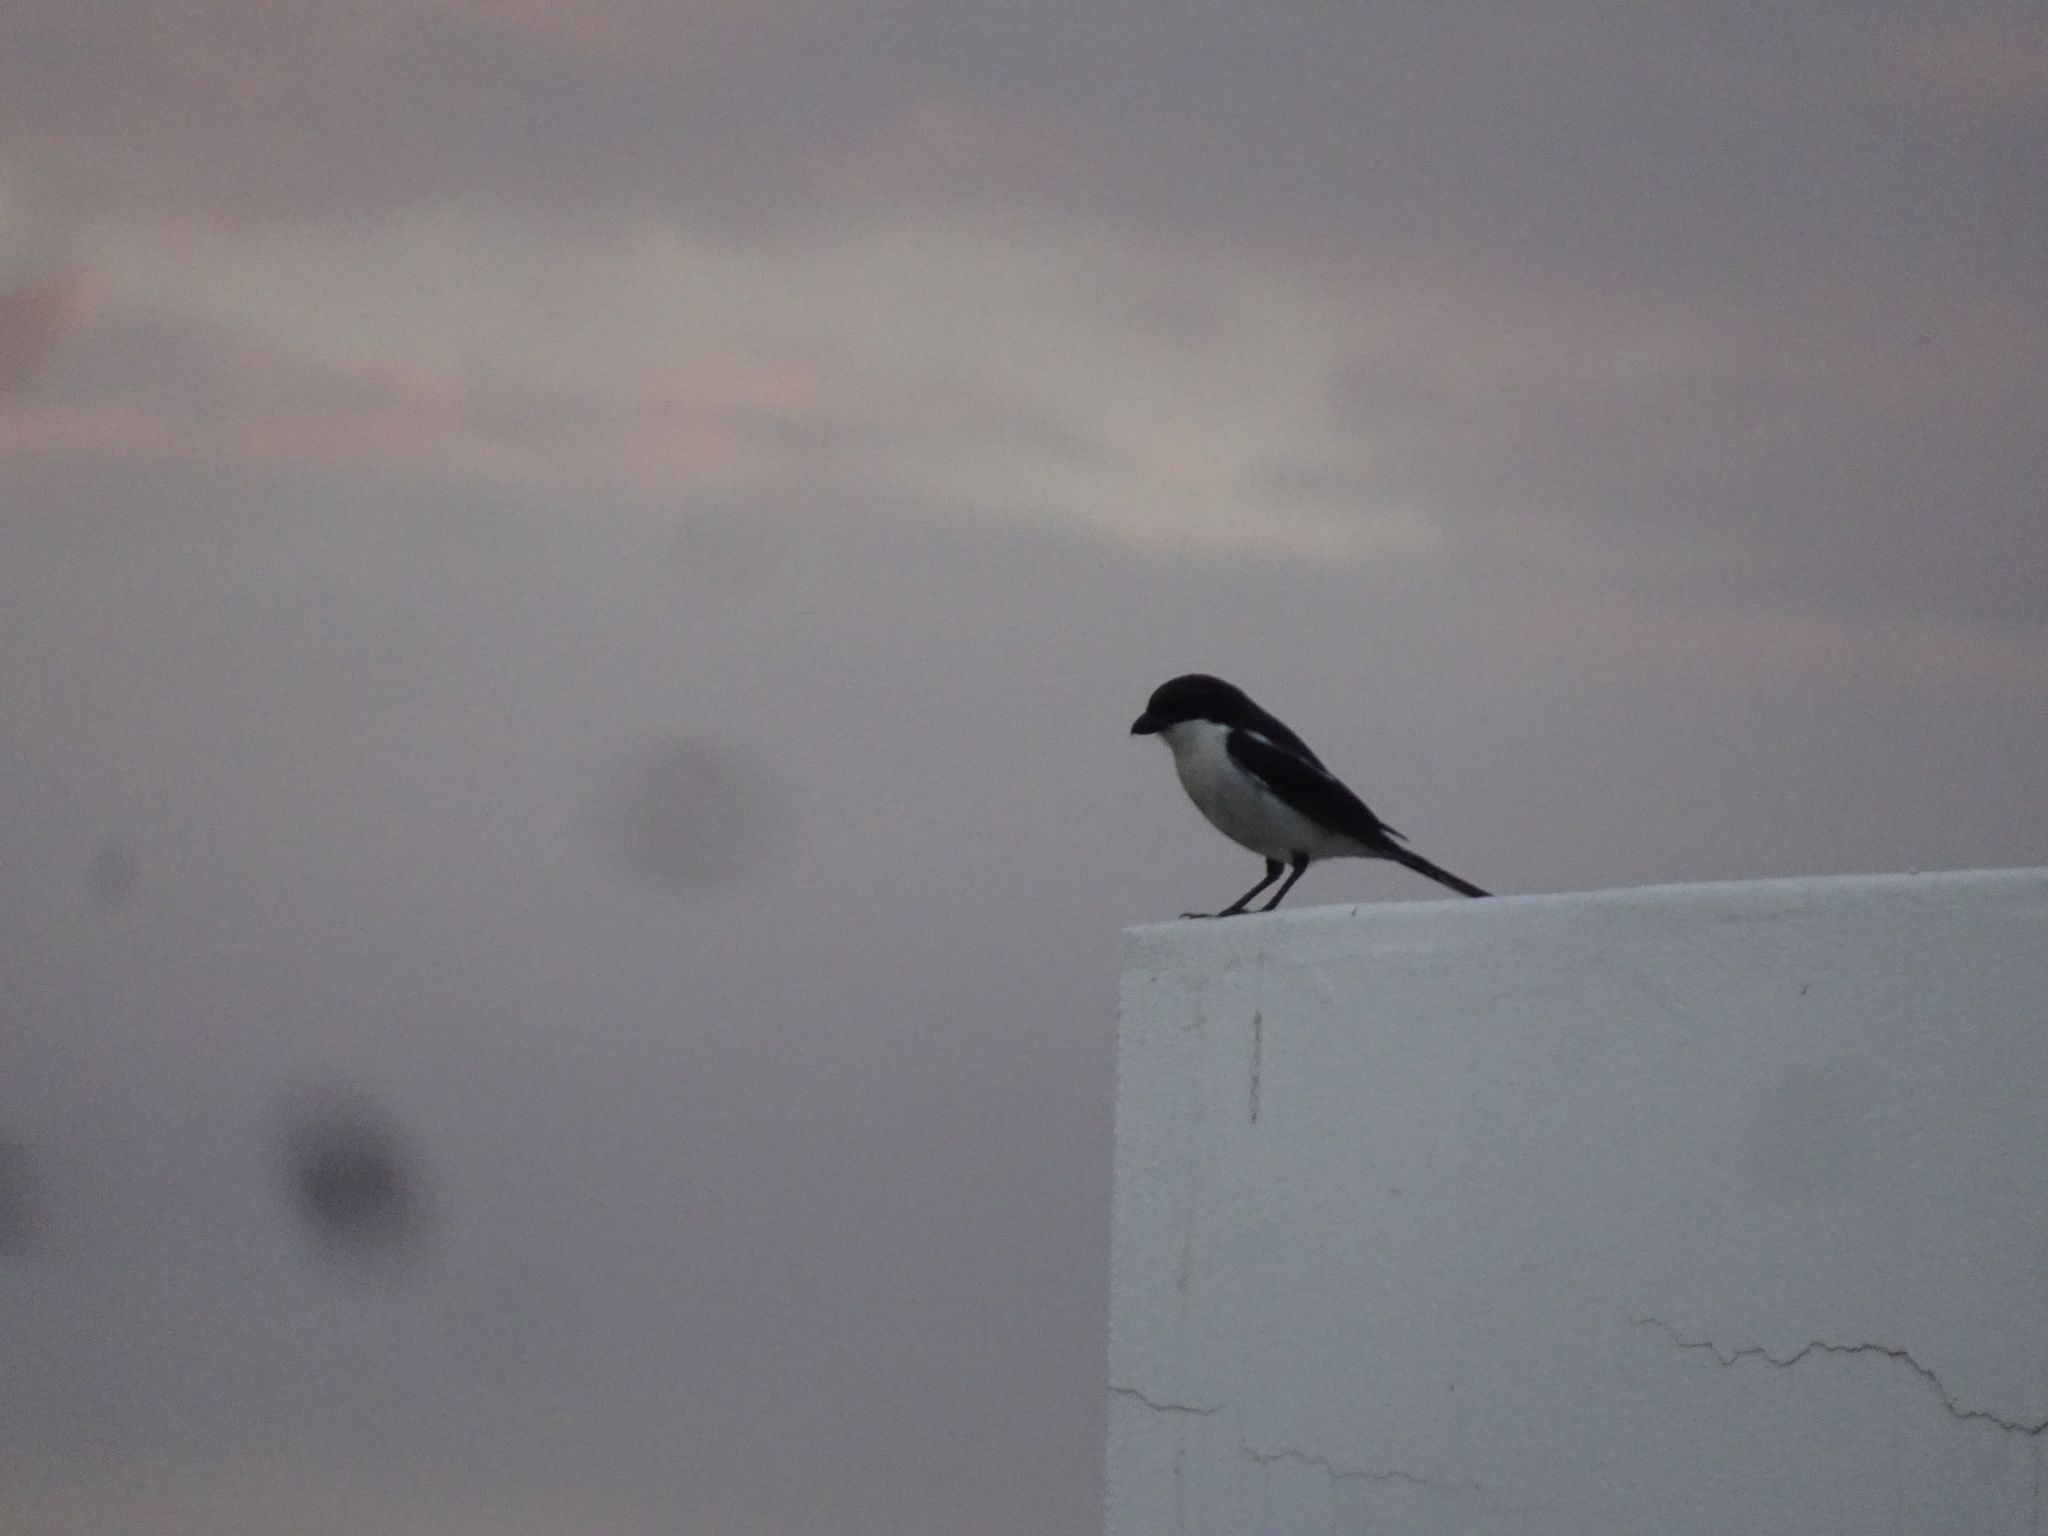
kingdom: Animalia
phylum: Chordata
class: Aves
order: Passeriformes
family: Laniidae
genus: Lanius
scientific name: Lanius collaris
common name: Southern fiscal
